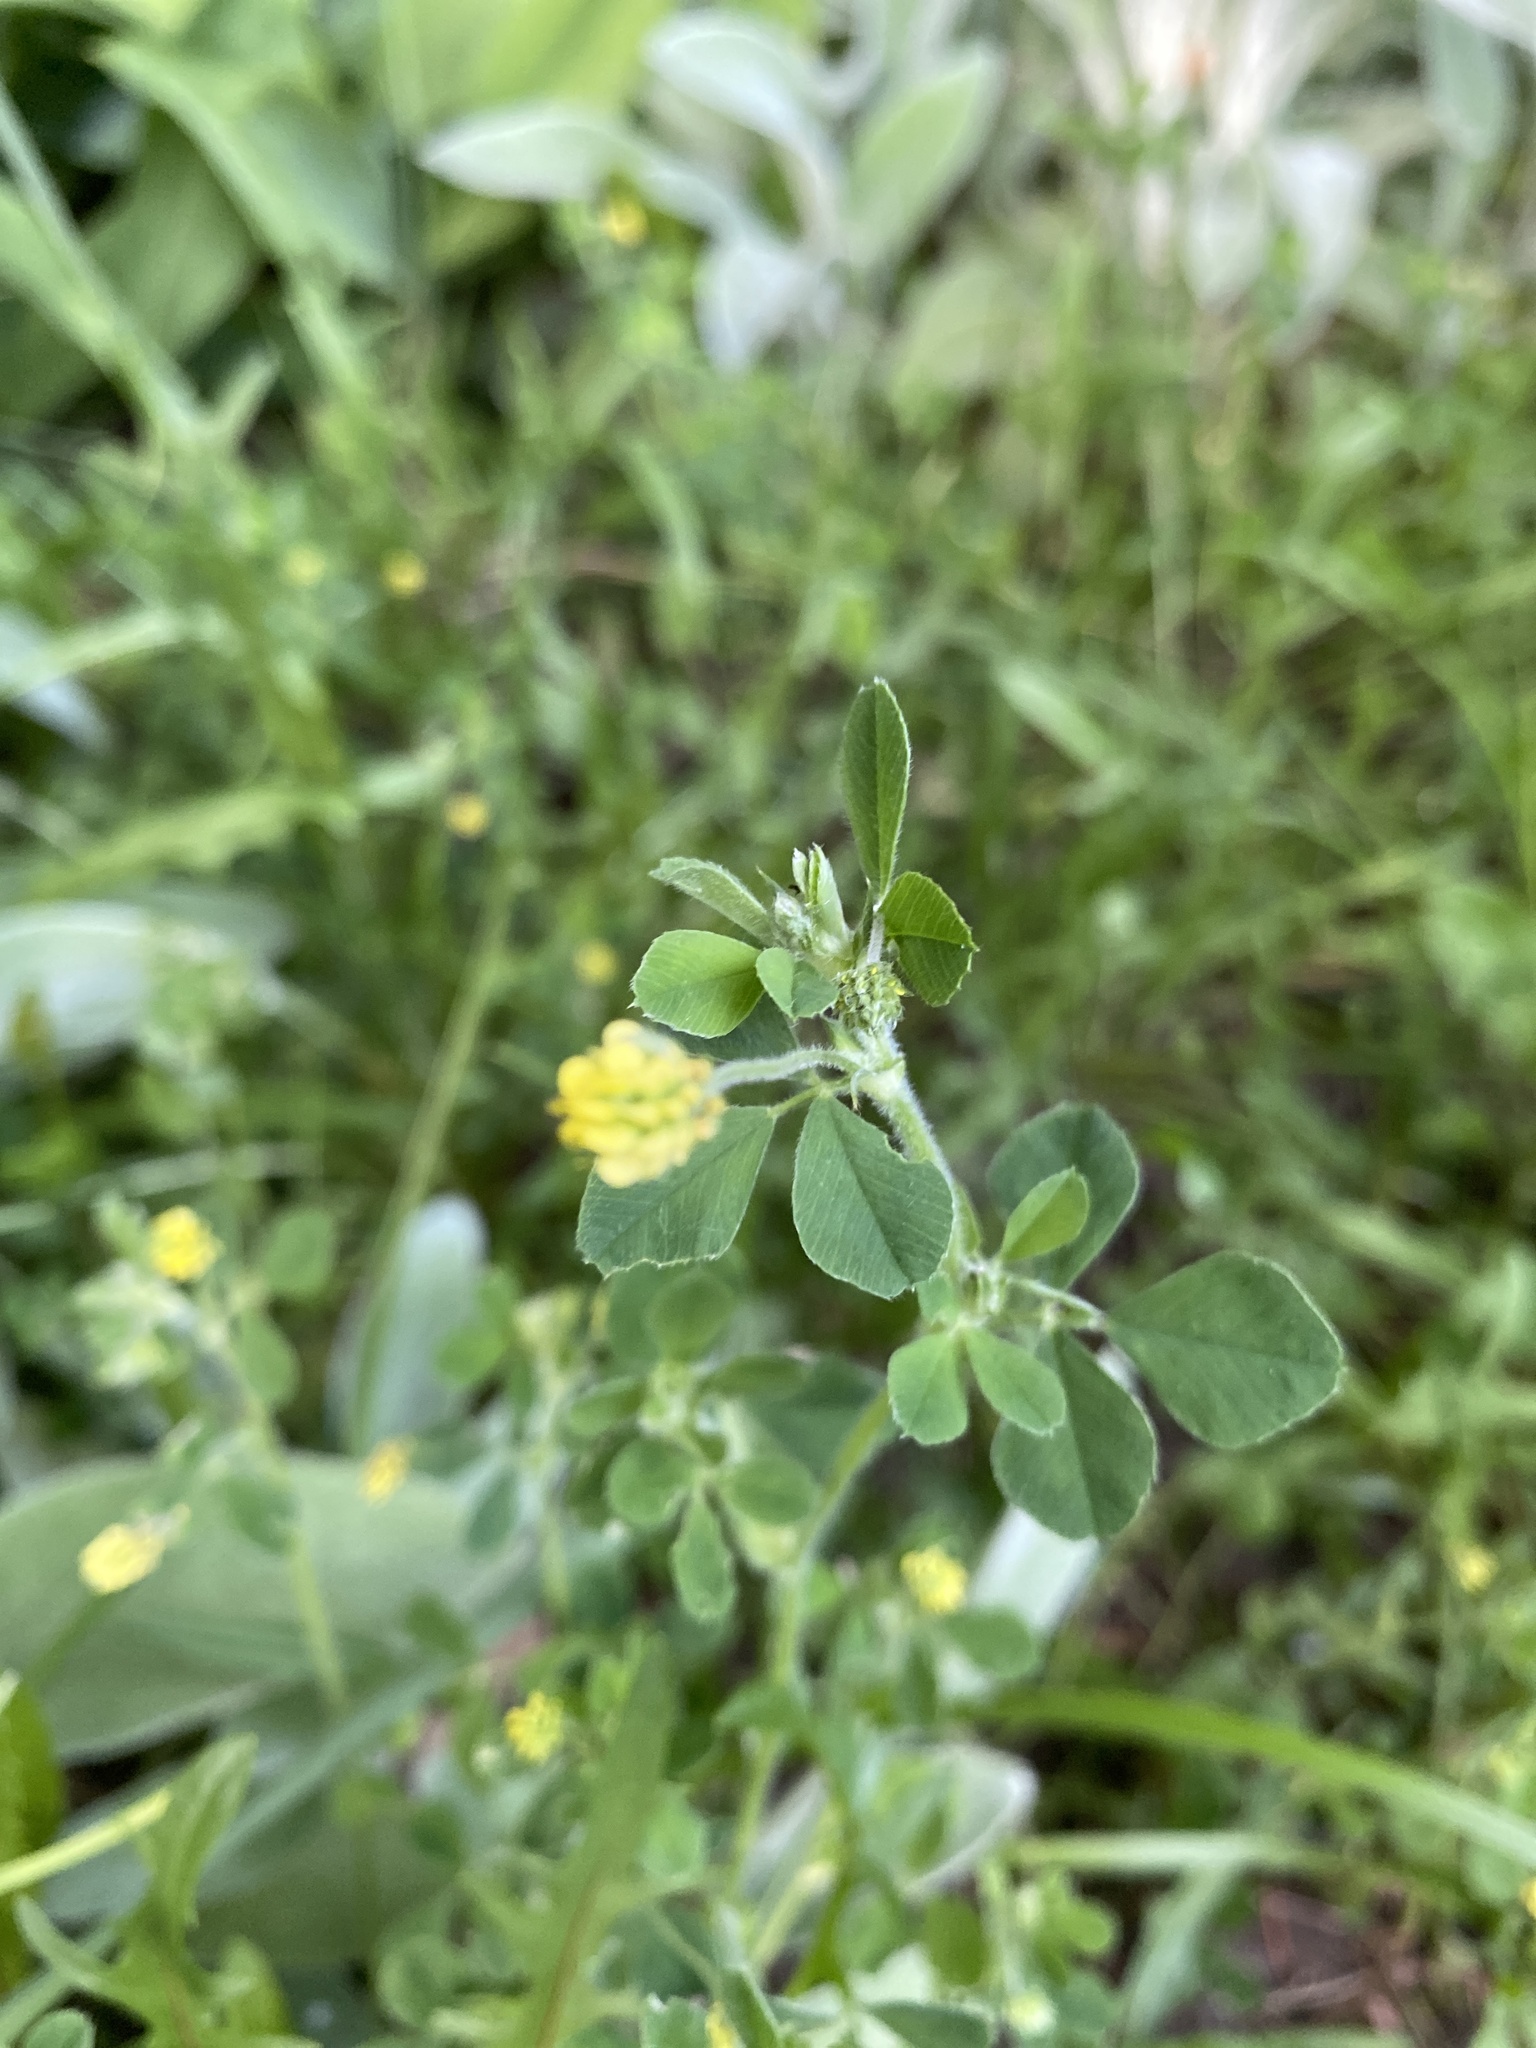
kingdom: Plantae
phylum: Tracheophyta
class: Magnoliopsida
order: Fabales
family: Fabaceae
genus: Medicago
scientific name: Medicago lupulina
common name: Black medick
